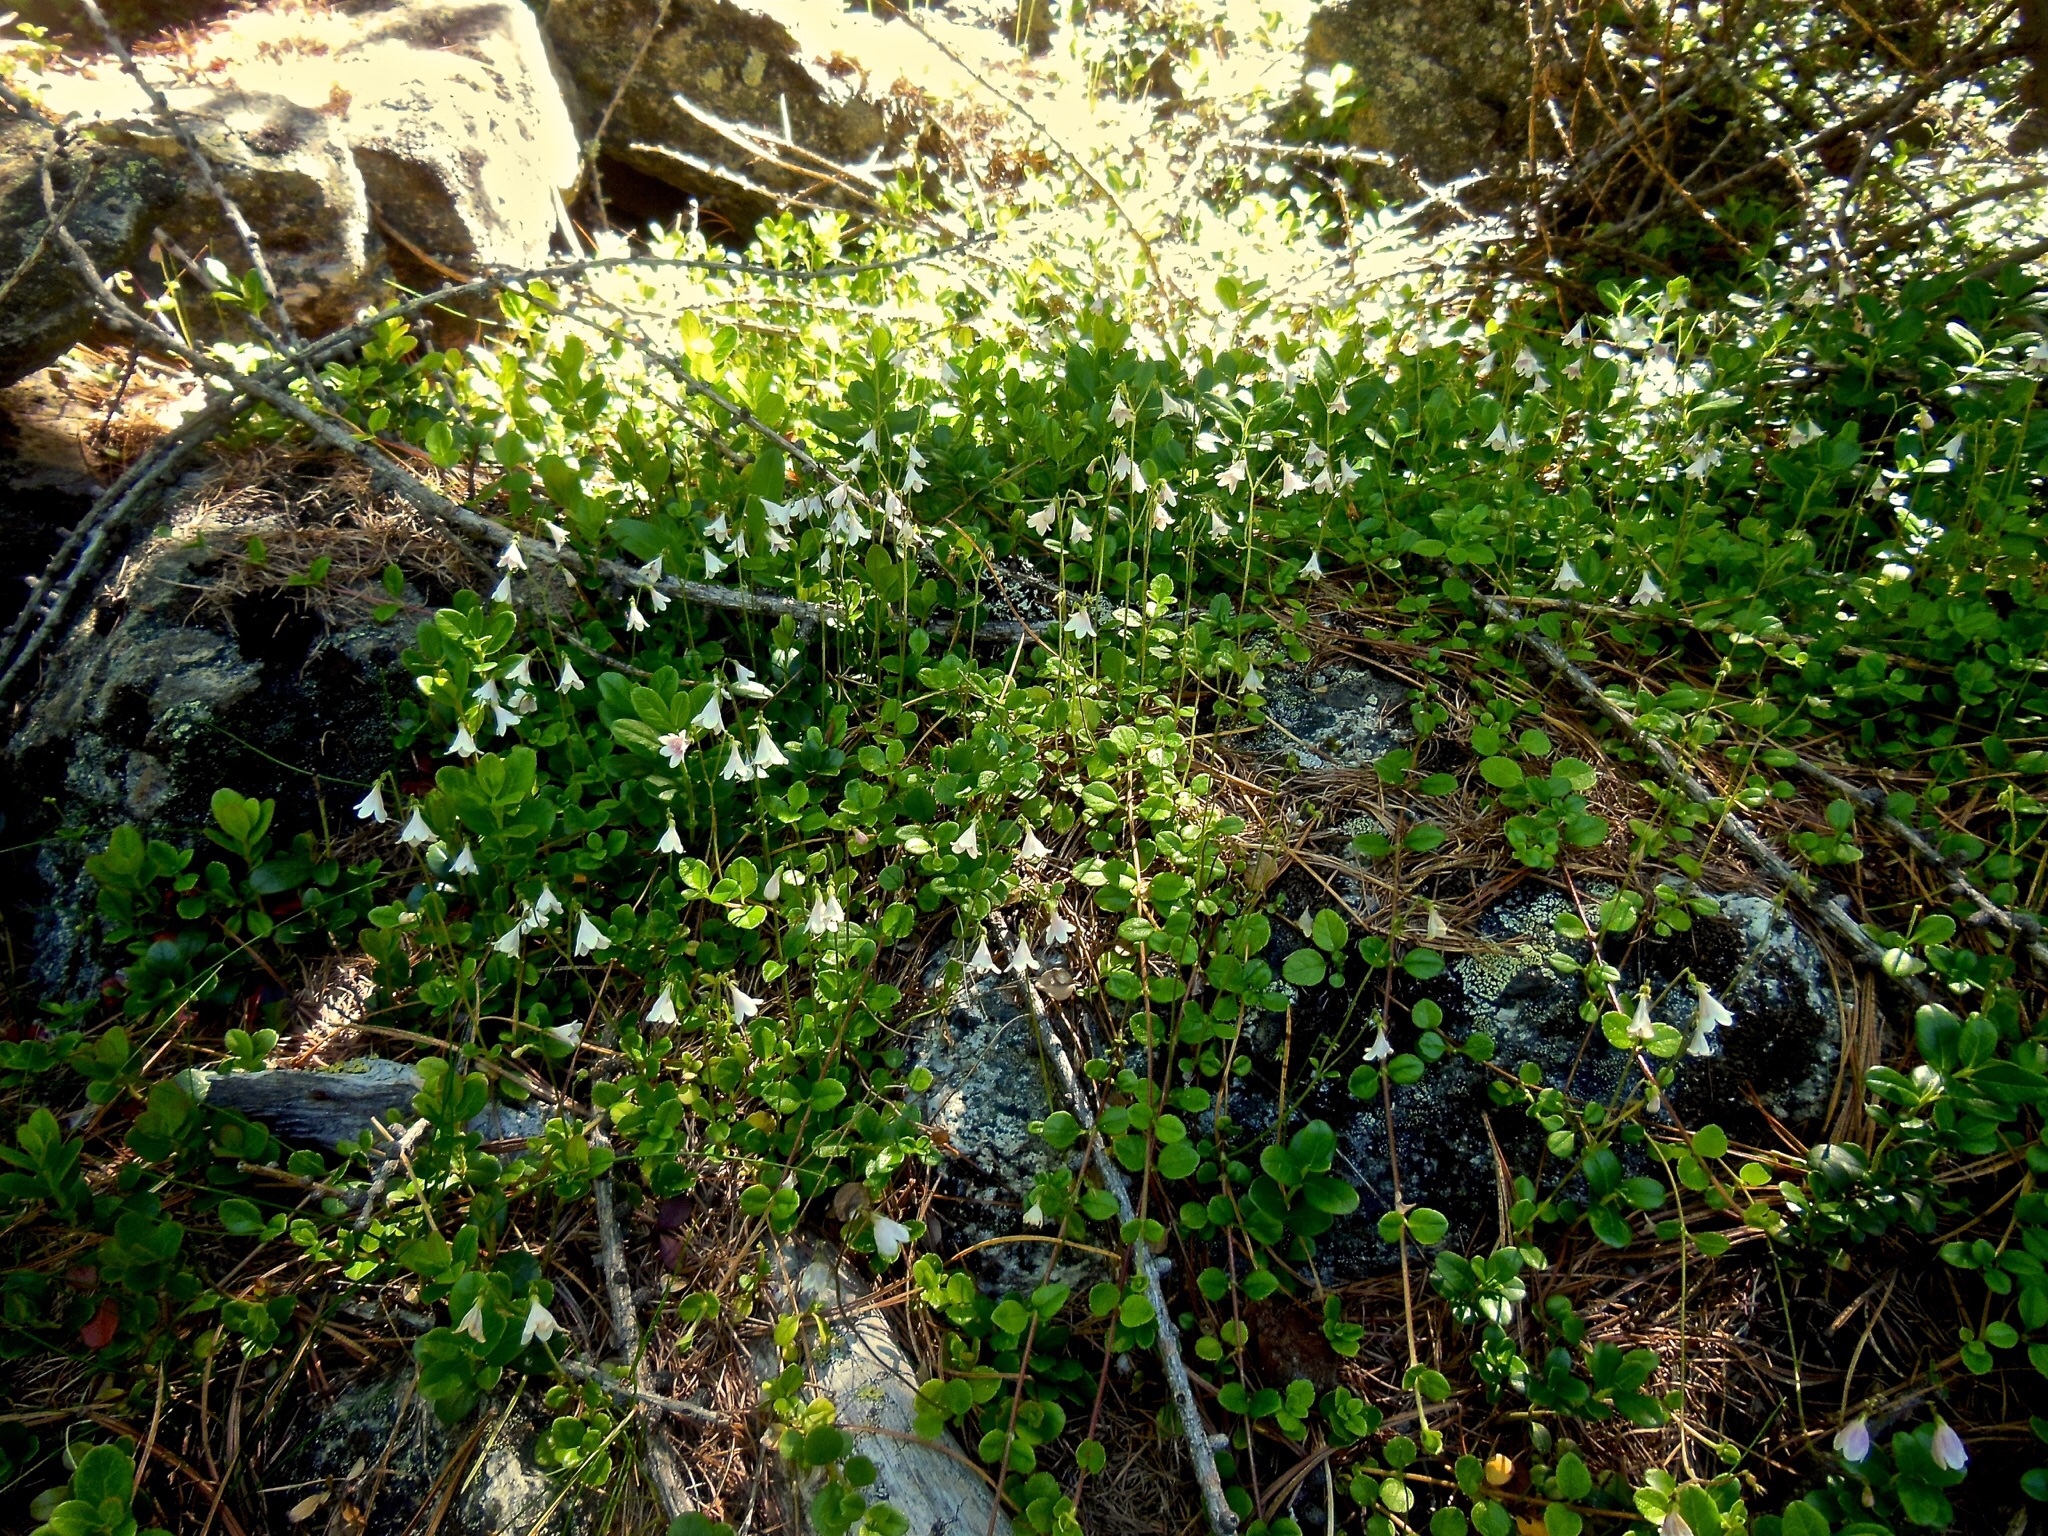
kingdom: Plantae
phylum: Tracheophyta
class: Magnoliopsida
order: Dipsacales
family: Caprifoliaceae
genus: Linnaea
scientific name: Linnaea borealis
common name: Twinflower
